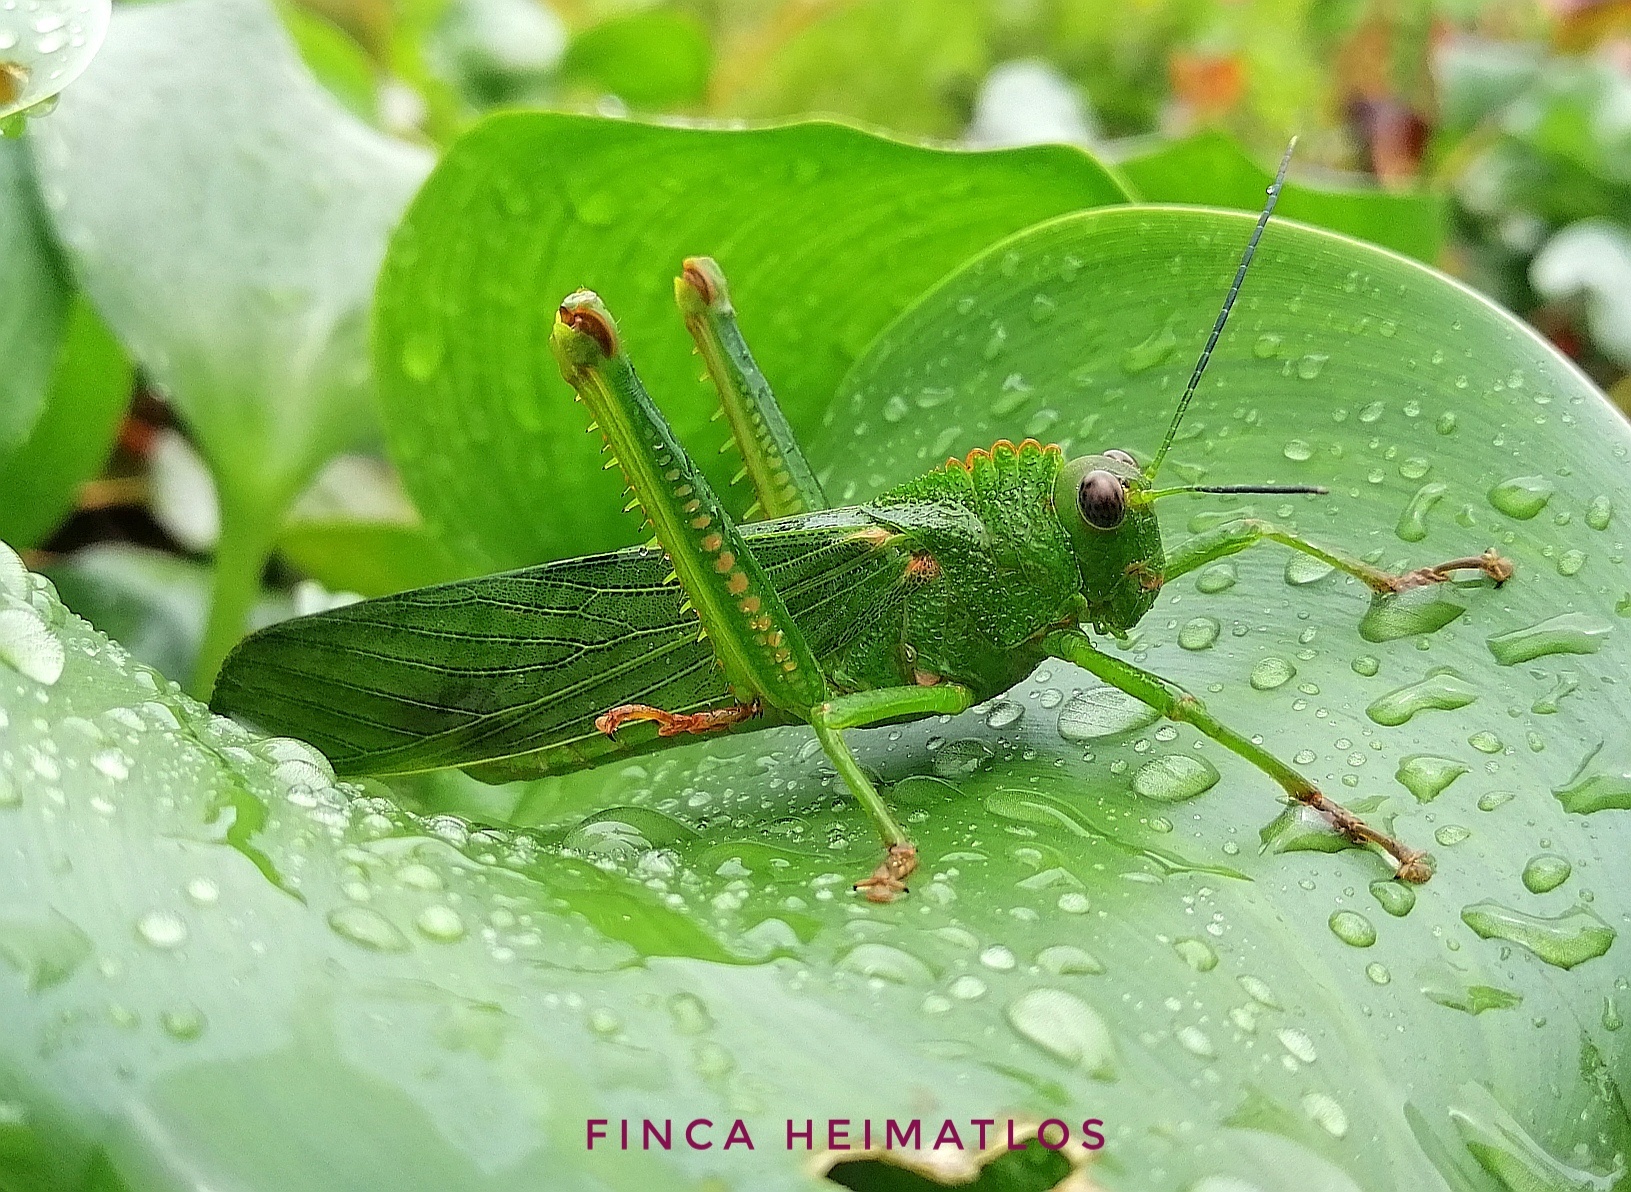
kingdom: Animalia
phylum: Arthropoda
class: Insecta
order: Orthoptera
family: Romaleidae
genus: Titanacris
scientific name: Titanacris humboldtii
